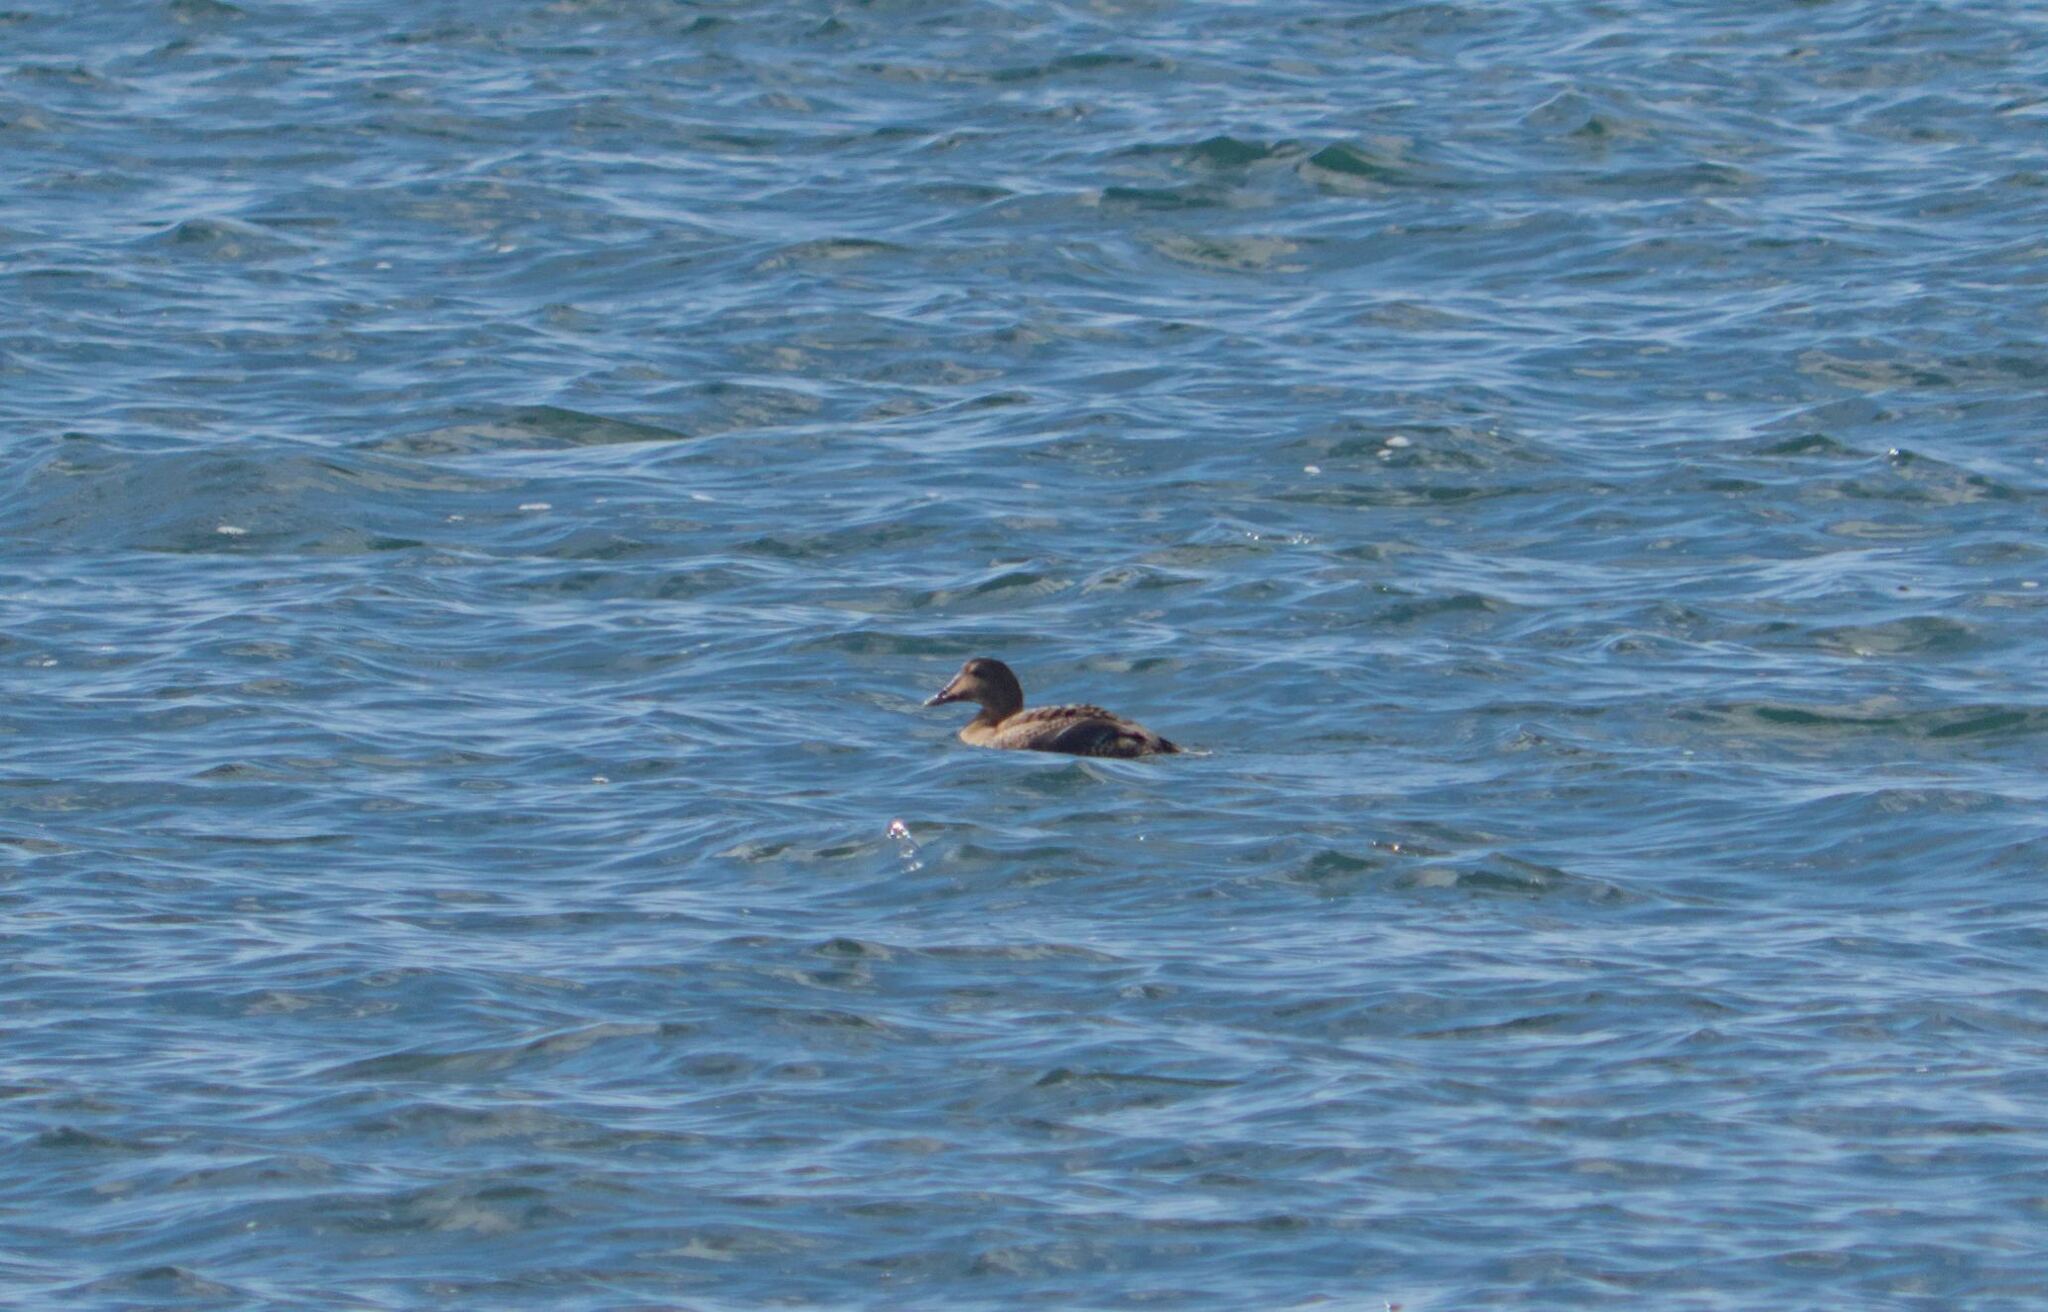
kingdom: Animalia
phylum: Chordata
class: Aves
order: Anseriformes
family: Anatidae
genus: Somateria
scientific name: Somateria mollissima
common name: Common eider
